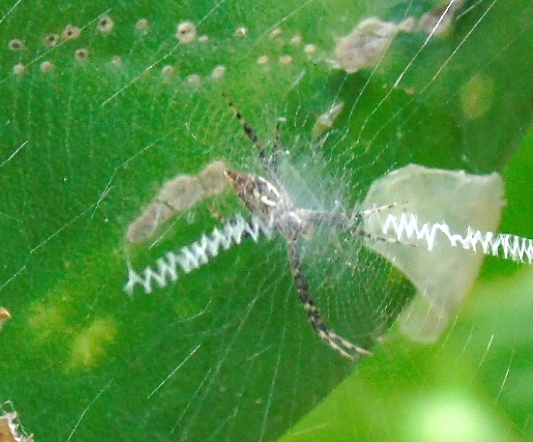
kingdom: Animalia
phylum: Arthropoda
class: Arachnida
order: Araneae
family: Araneidae
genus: Argiope
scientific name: Argiope aurantia
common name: Orb weavers
